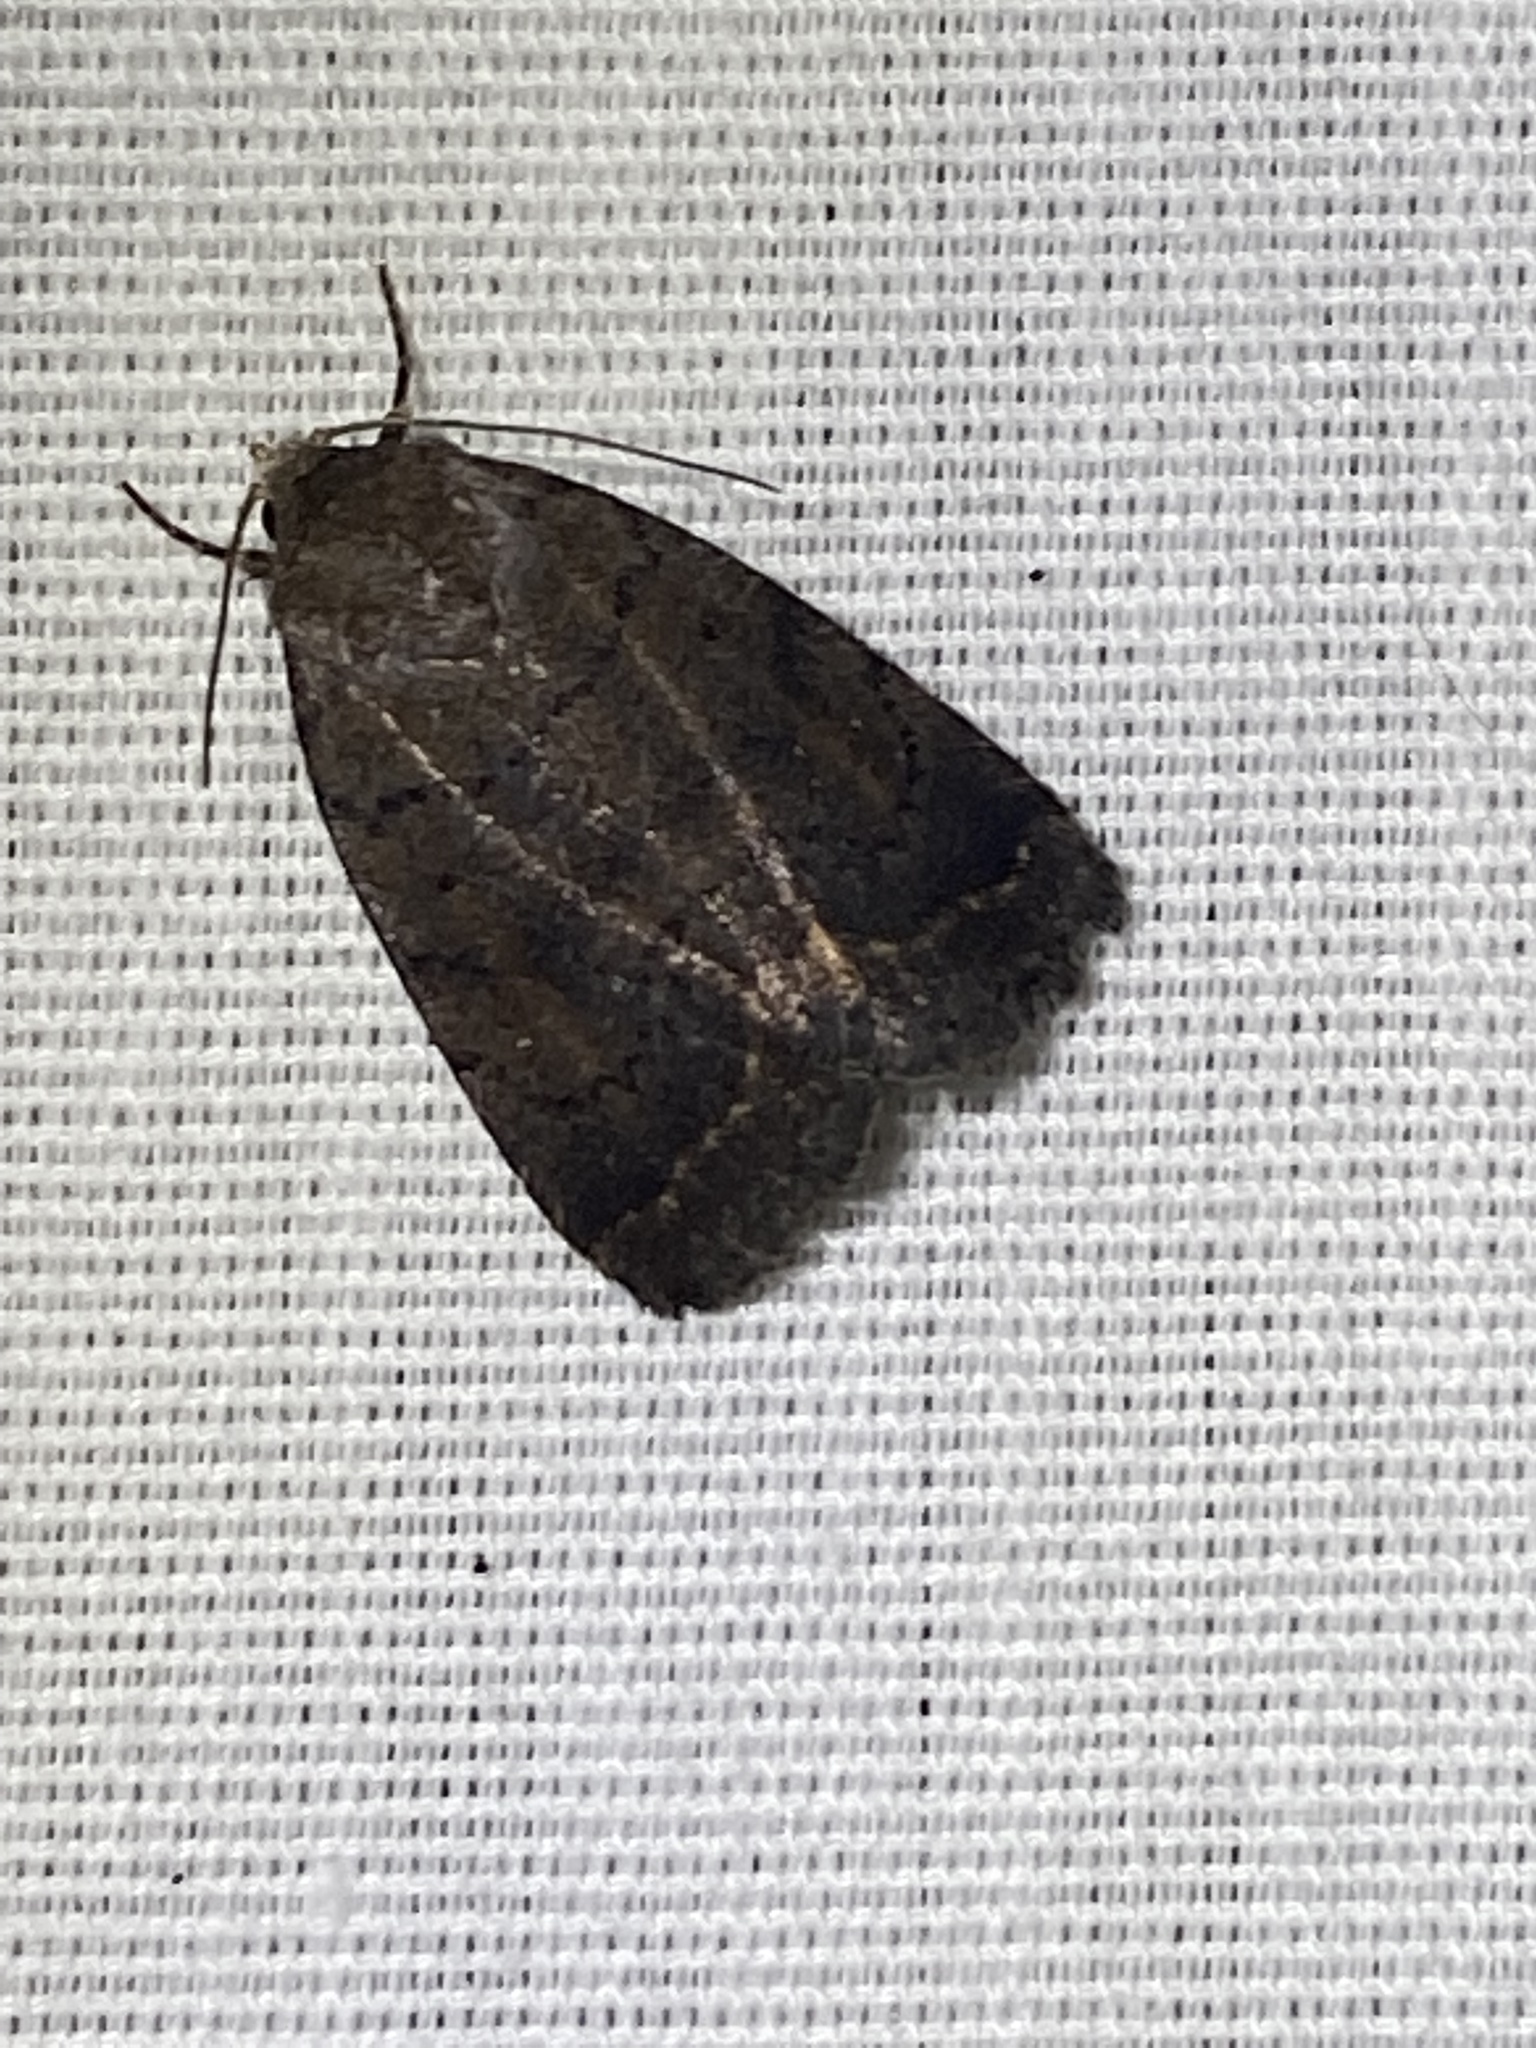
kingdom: Animalia
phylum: Arthropoda
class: Insecta
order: Lepidoptera
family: Noctuidae
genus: Athetis
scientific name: Athetis tarda
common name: Slowpoke moth
